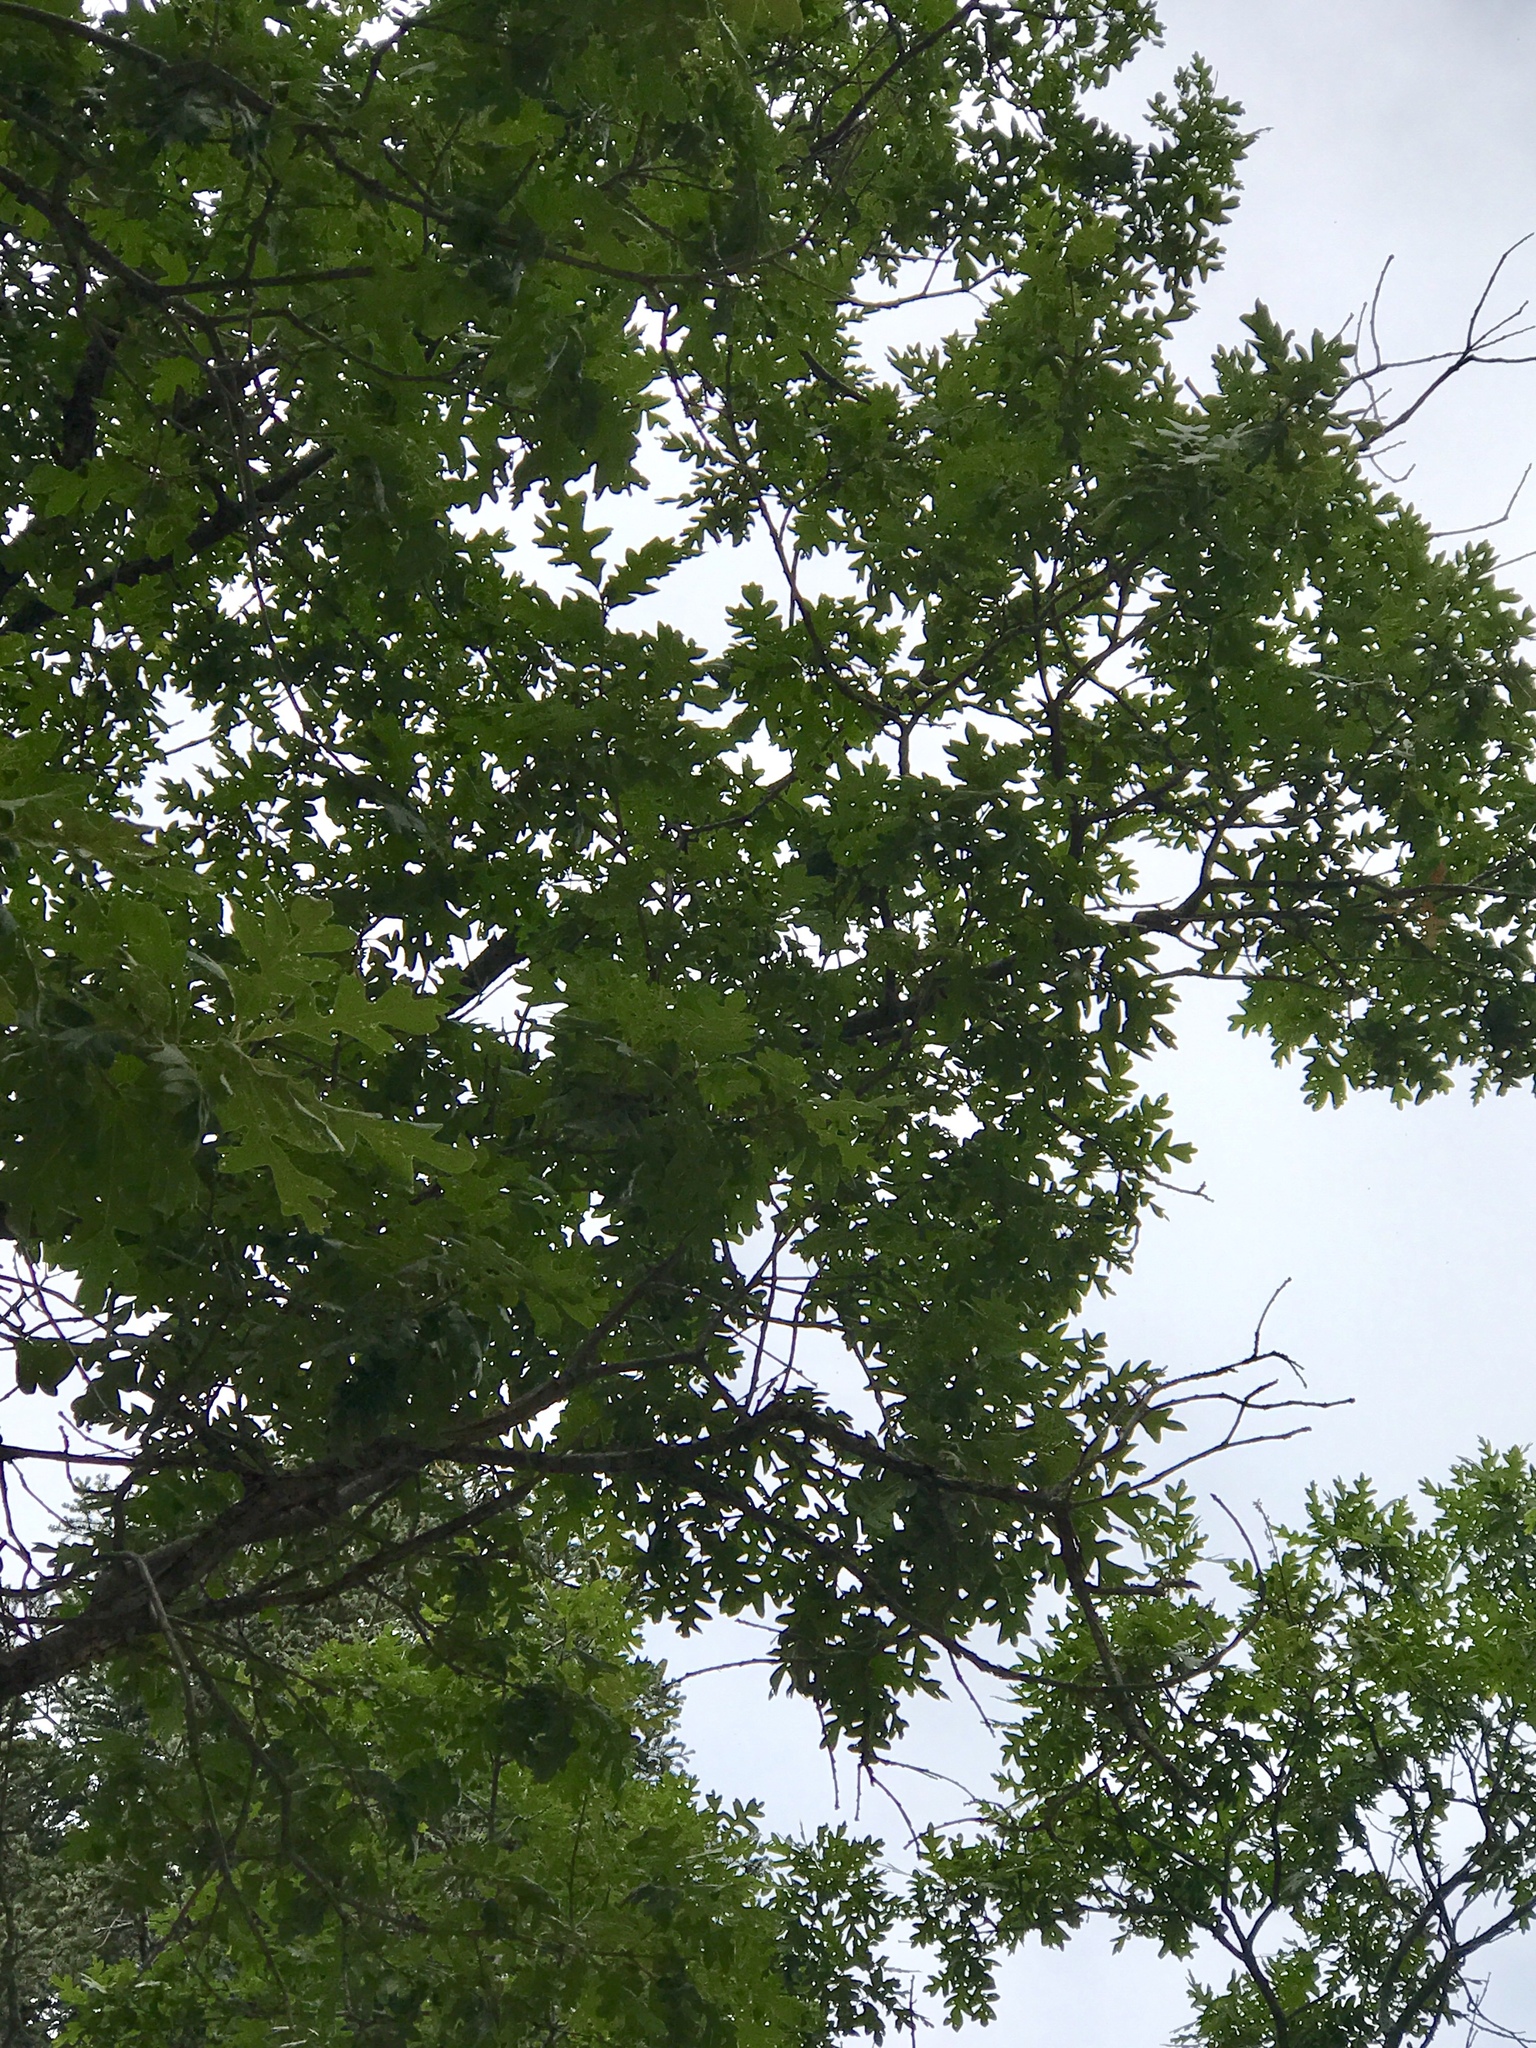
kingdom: Plantae
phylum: Tracheophyta
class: Magnoliopsida
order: Fagales
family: Fagaceae
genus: Quercus
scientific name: Quercus gambelii
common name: Gambel oak
